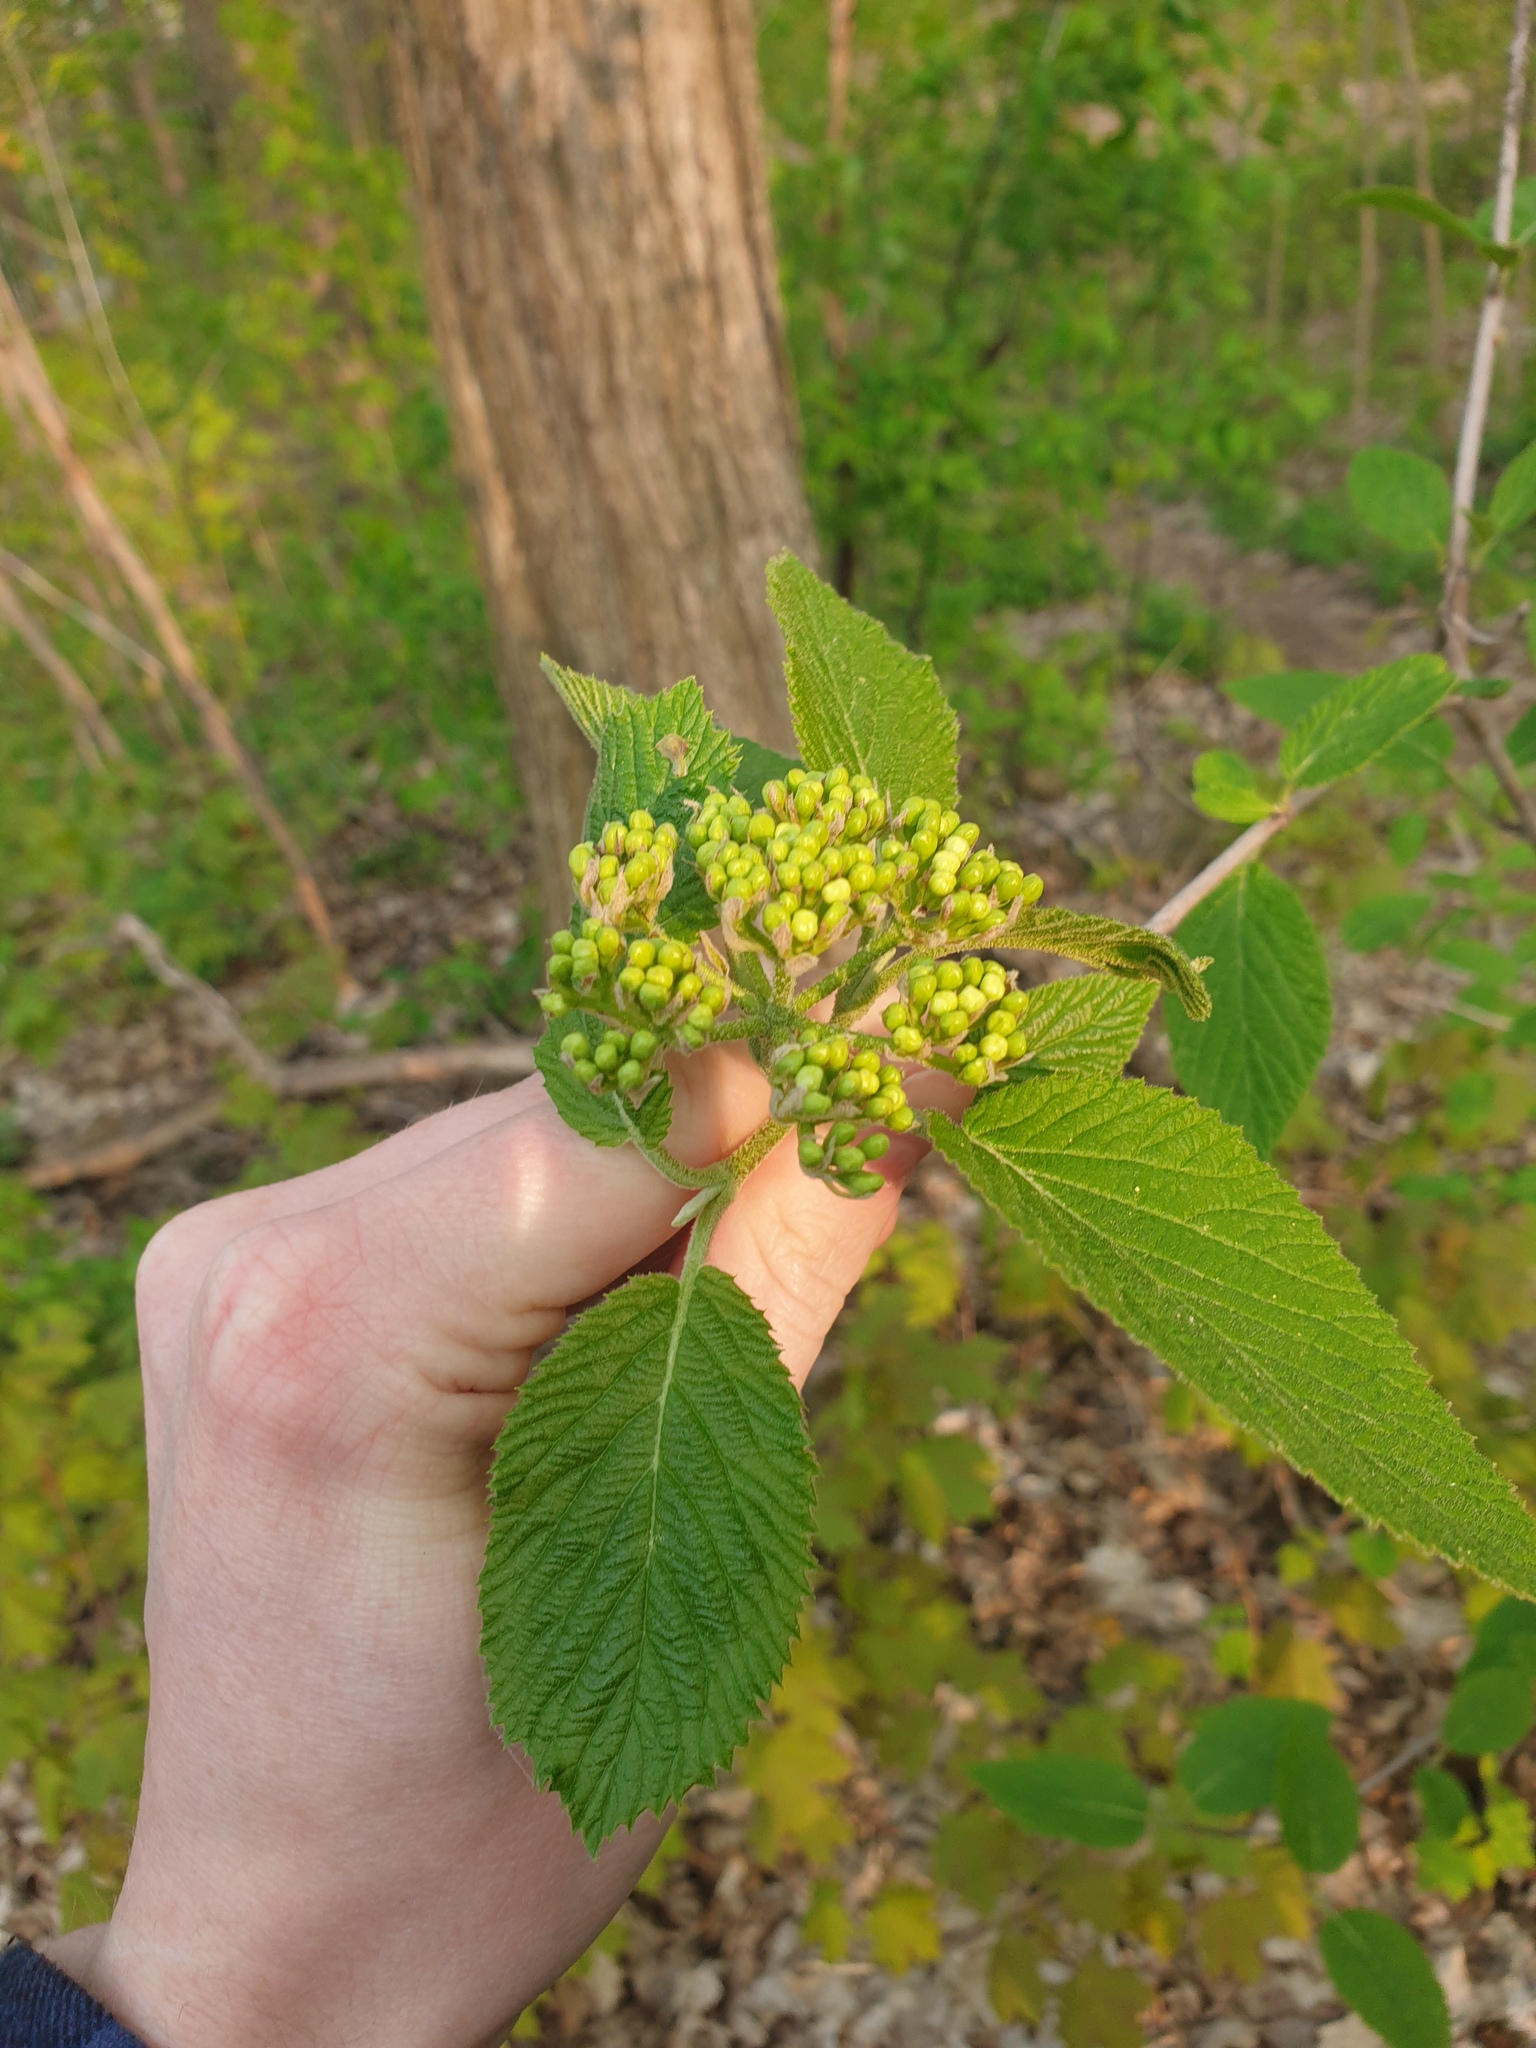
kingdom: Plantae
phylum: Tracheophyta
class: Magnoliopsida
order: Dipsacales
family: Viburnaceae
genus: Viburnum
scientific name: Viburnum lantana
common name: Wayfaring tree
